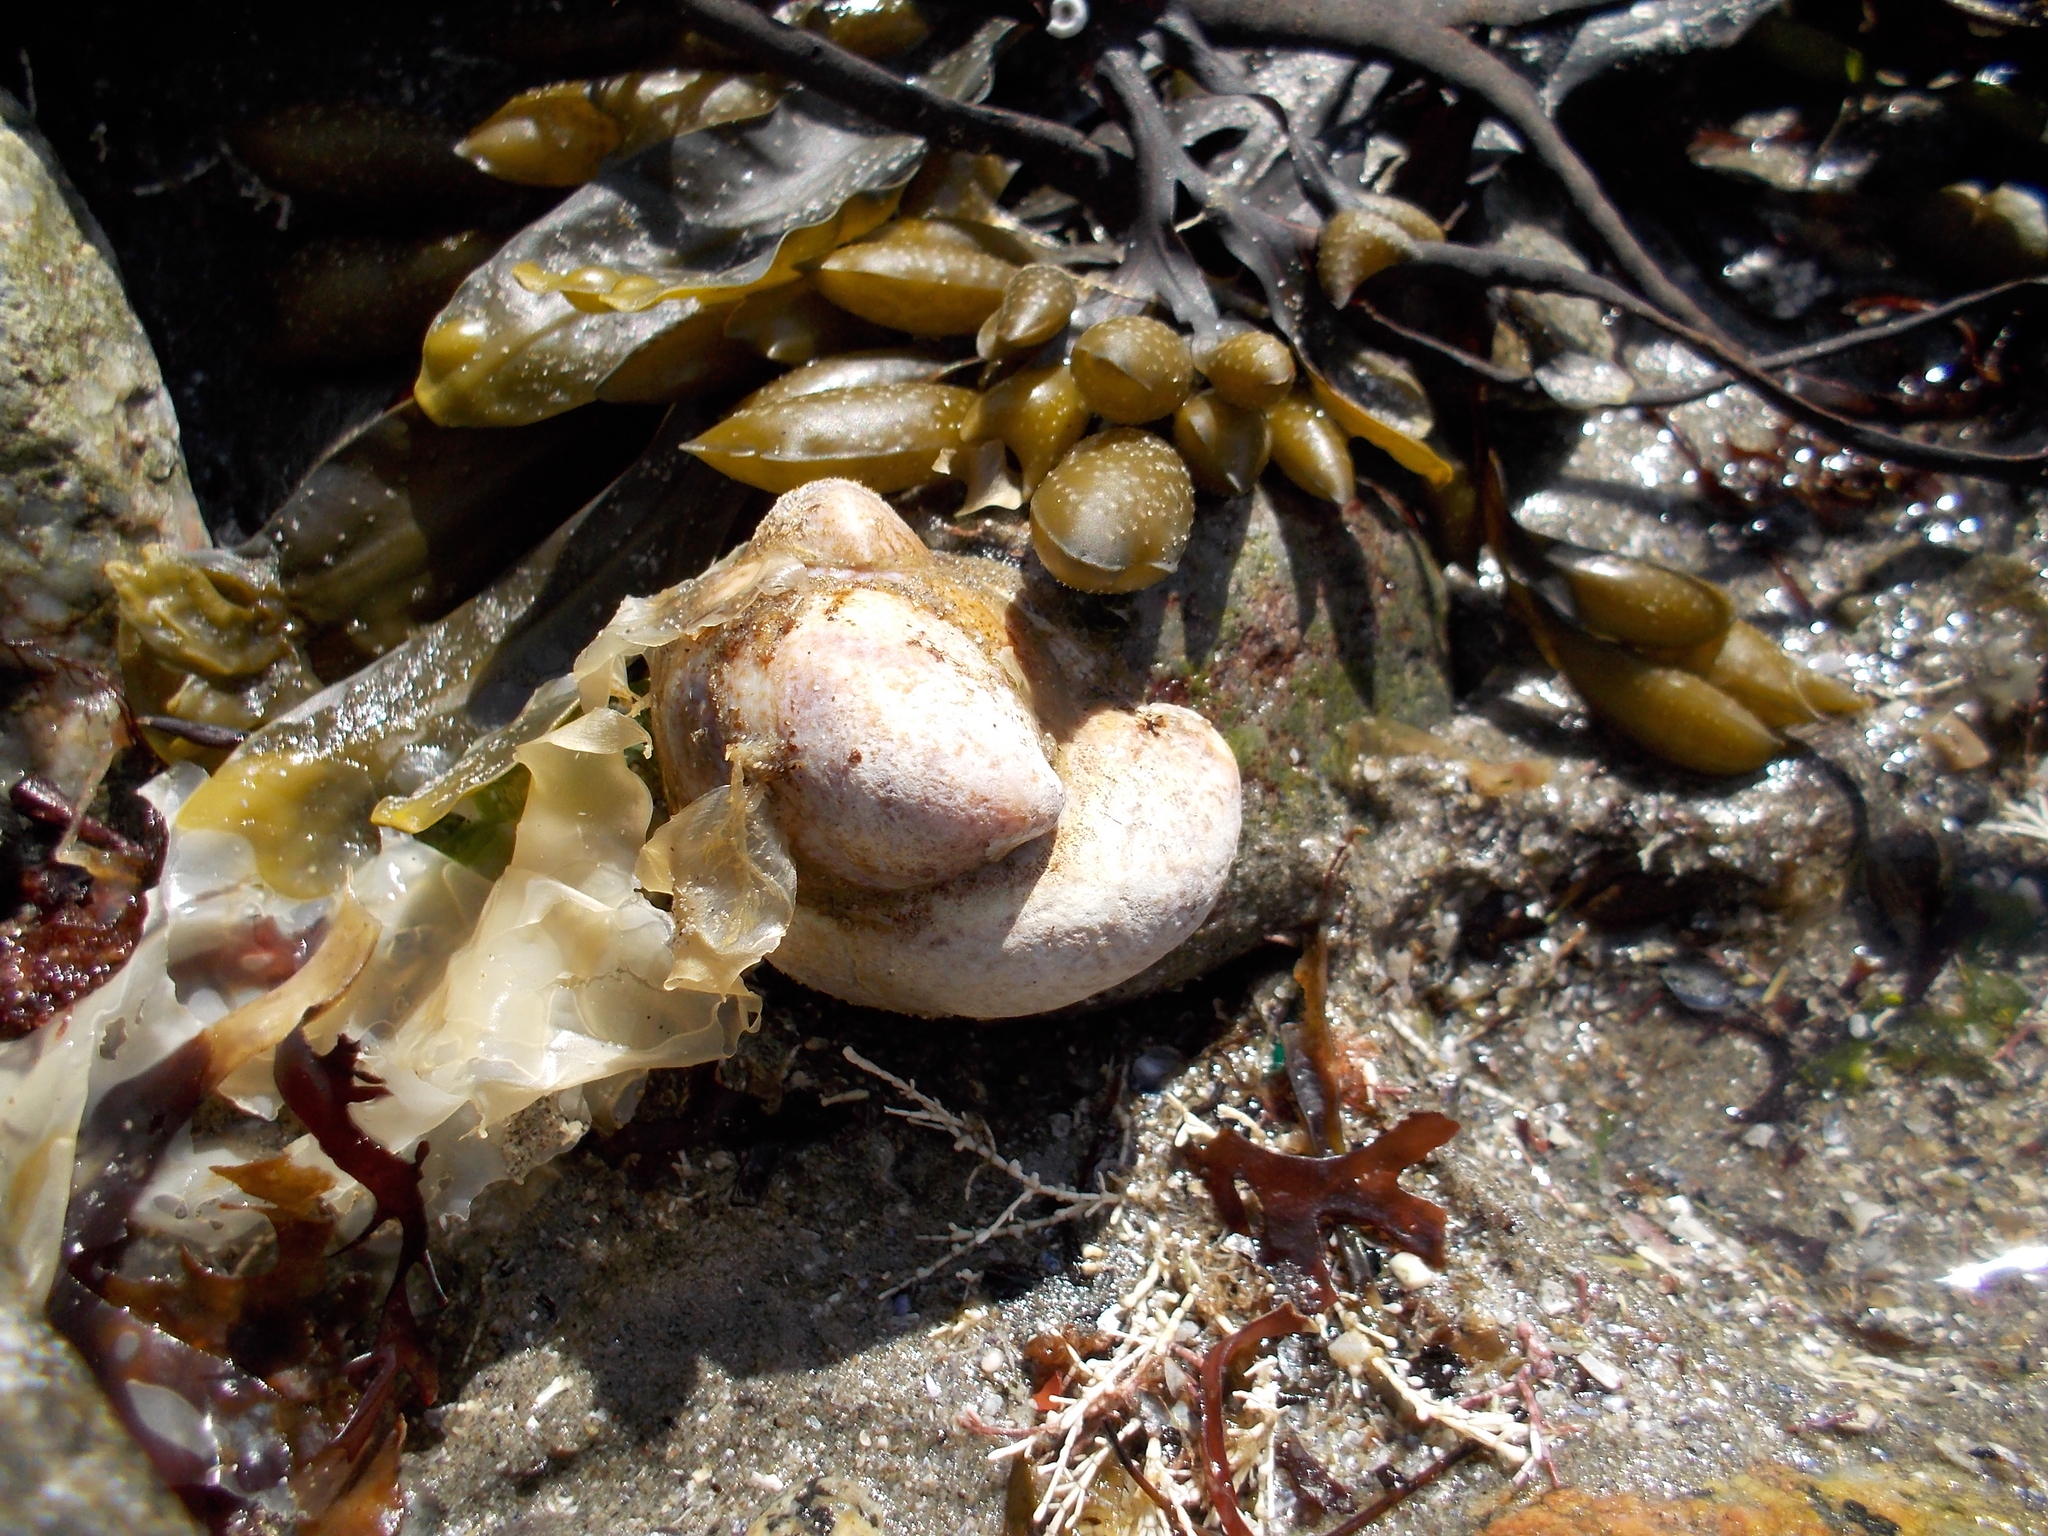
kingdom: Animalia
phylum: Mollusca
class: Gastropoda
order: Littorinimorpha
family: Calyptraeidae
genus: Crepidula
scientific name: Crepidula fornicata
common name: Slipper limpet
